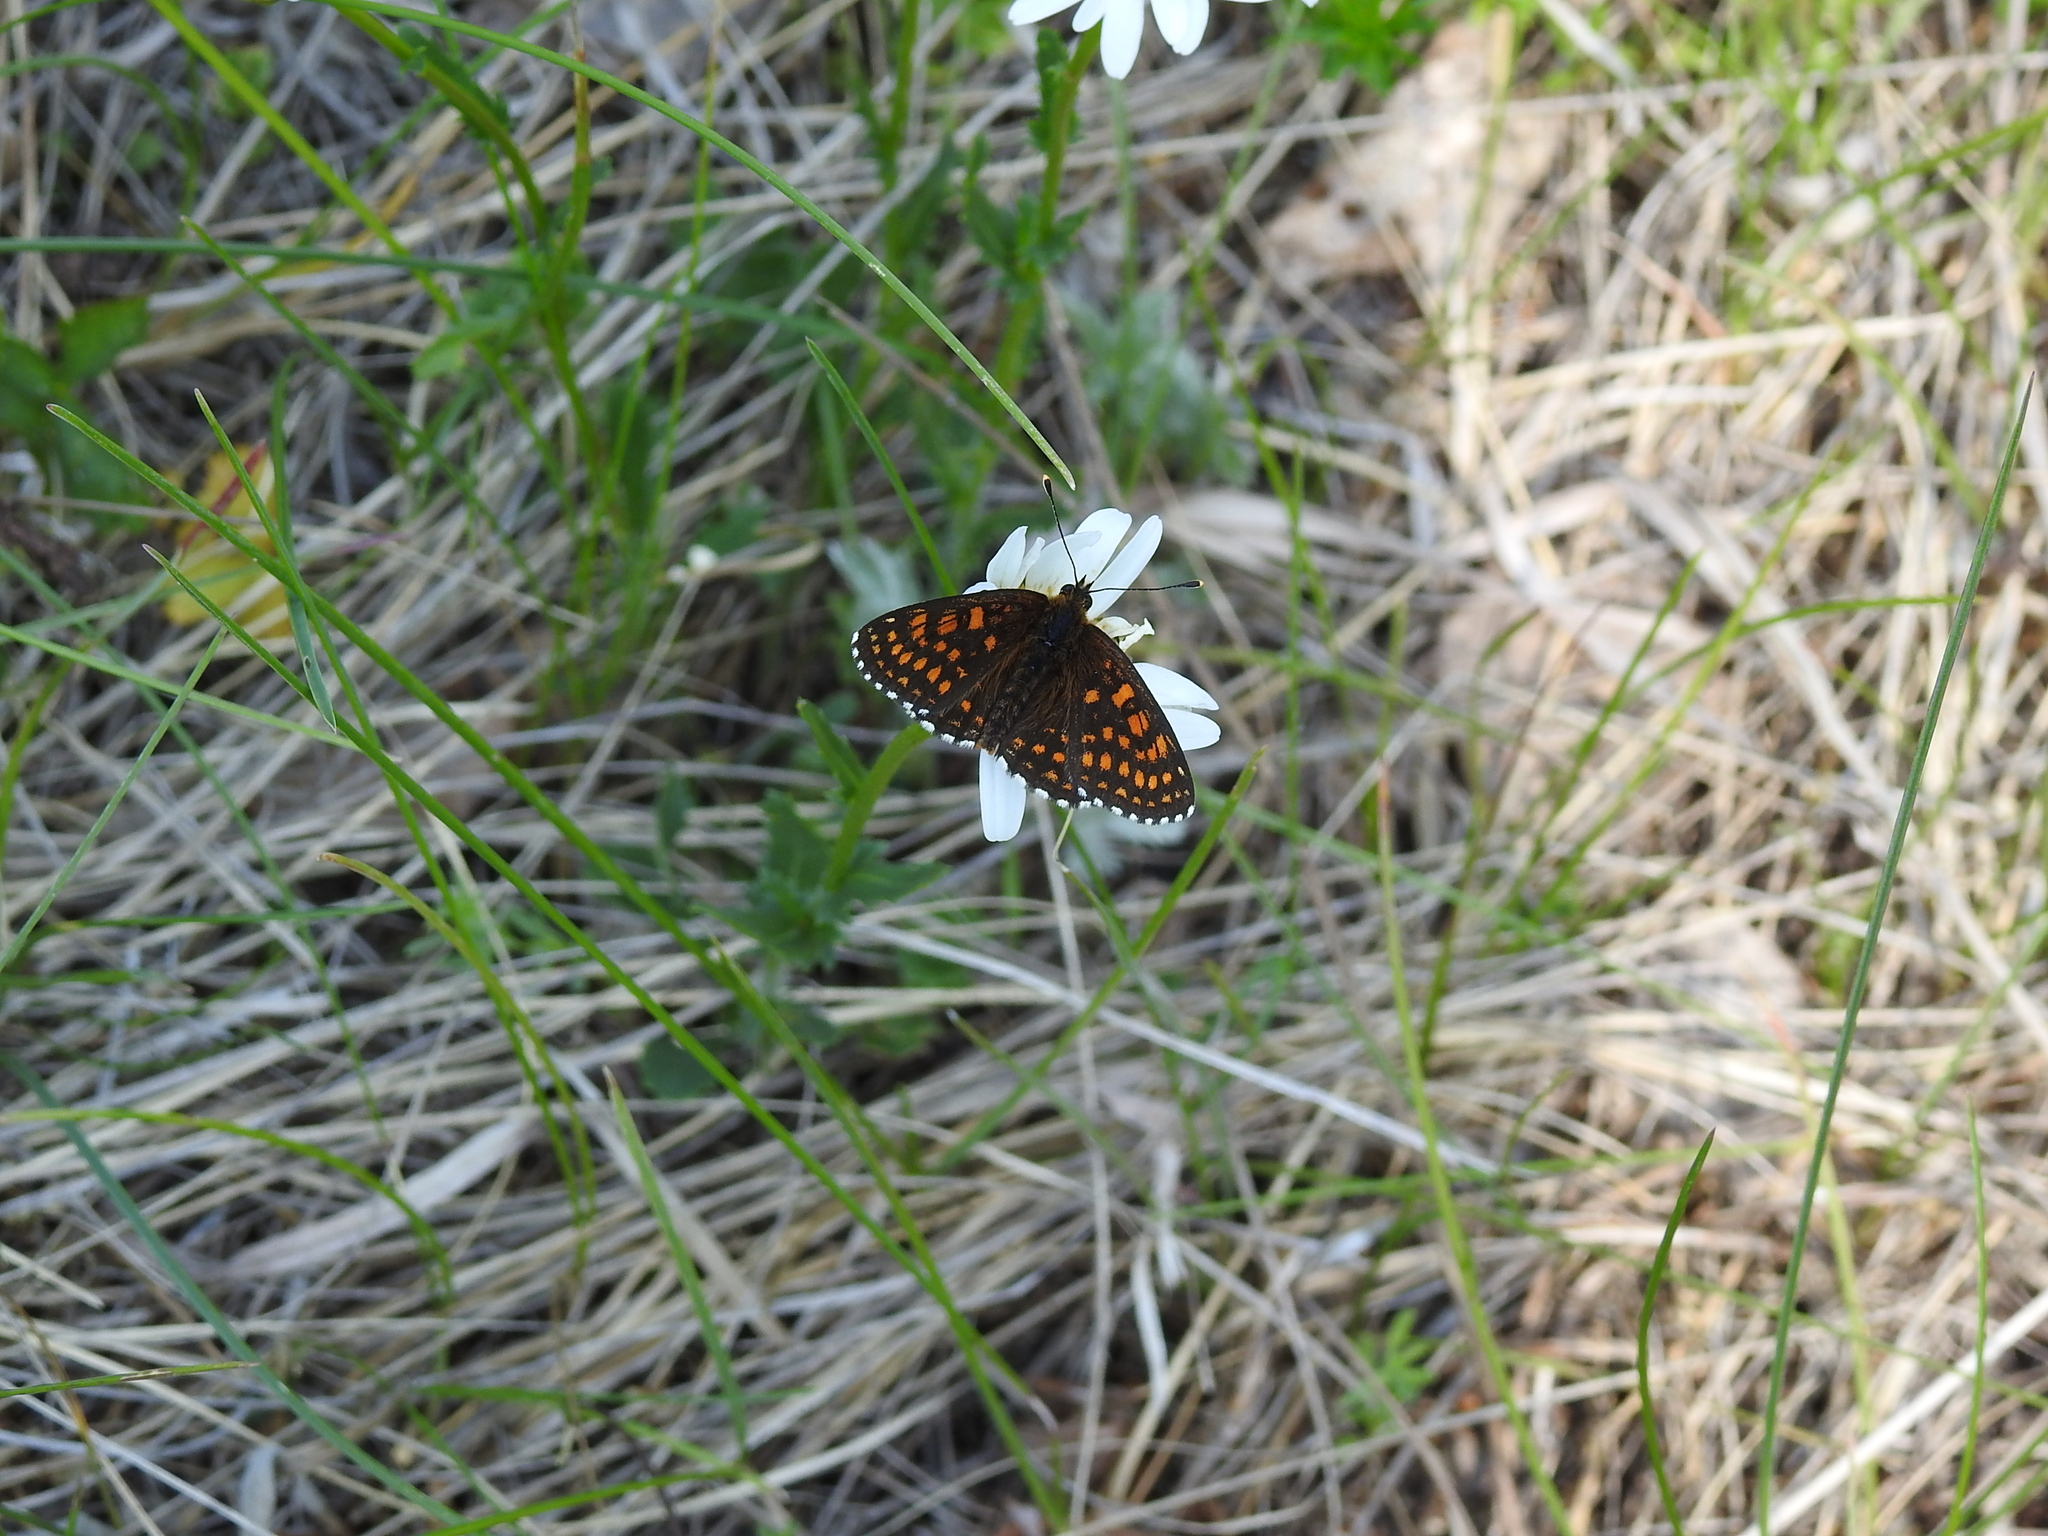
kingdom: Animalia
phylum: Arthropoda
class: Insecta
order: Lepidoptera
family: Nymphalidae
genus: Melitaea
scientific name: Melitaea athalia
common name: Heath fritillary
